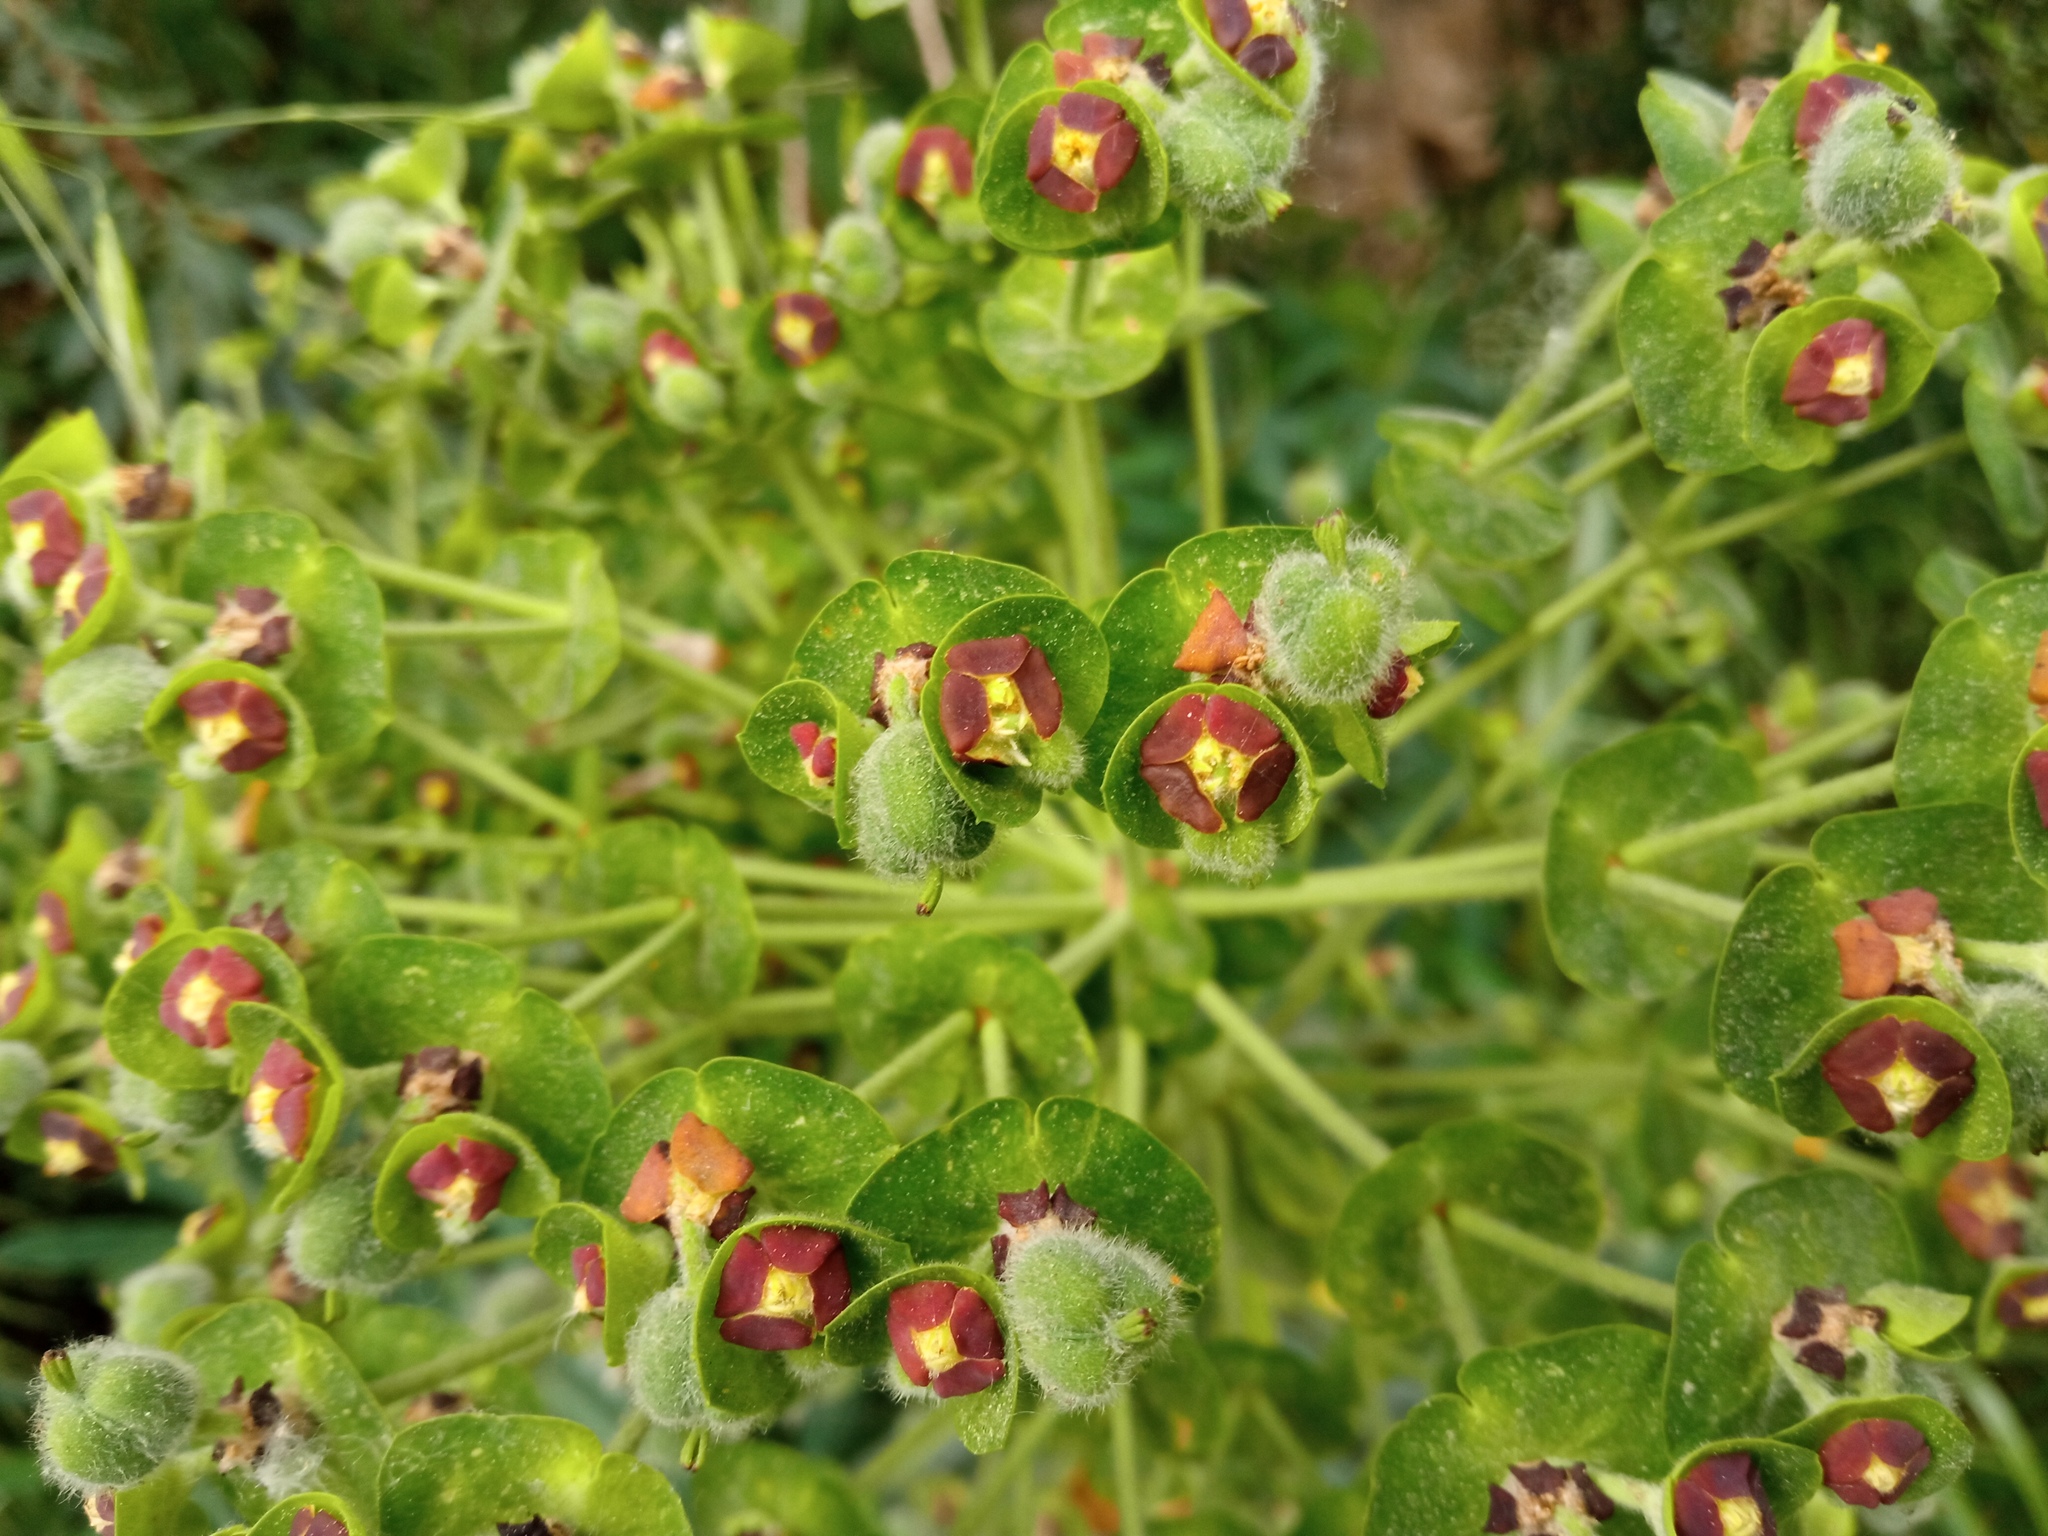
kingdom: Plantae
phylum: Tracheophyta
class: Magnoliopsida
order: Malpighiales
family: Euphorbiaceae
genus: Euphorbia
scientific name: Euphorbia characias
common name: Mediterranean spurge
